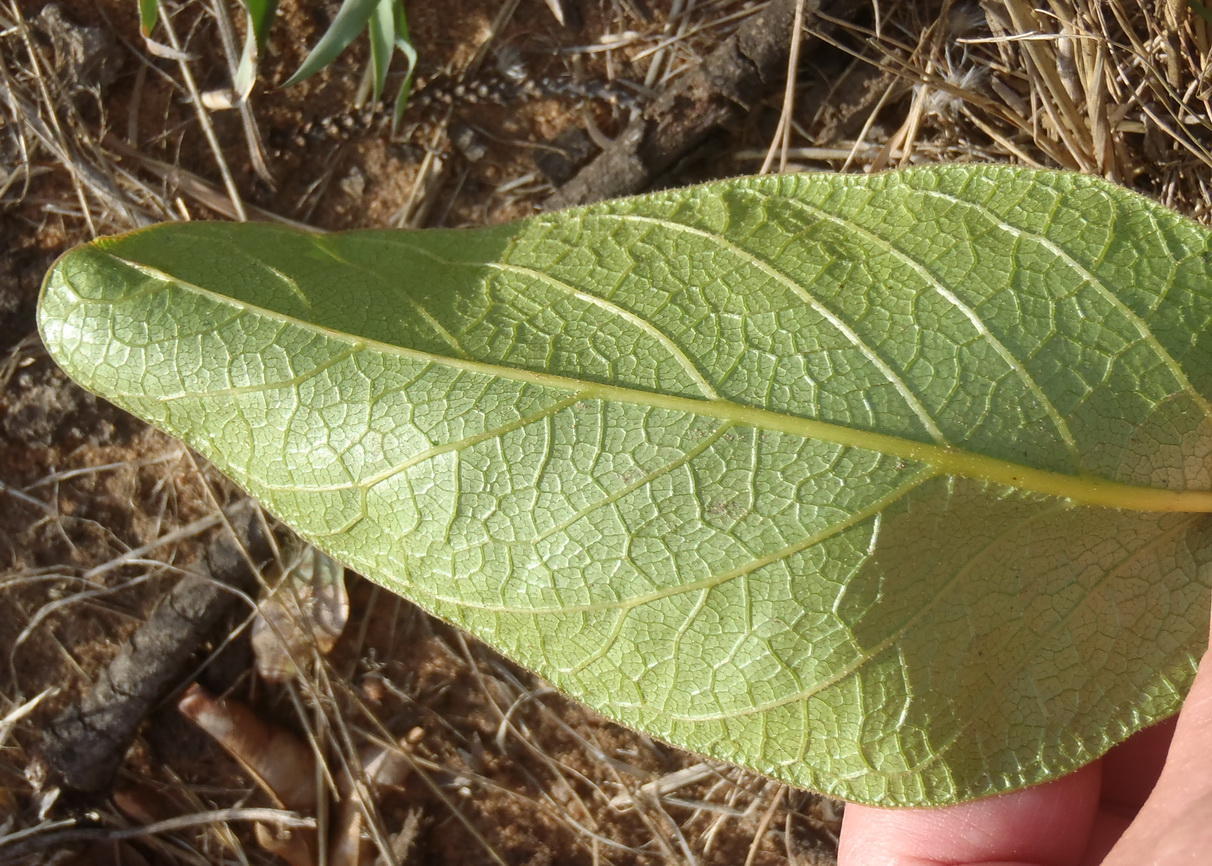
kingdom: Plantae
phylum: Tracheophyta
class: Magnoliopsida
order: Sapindales
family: Anacardiaceae
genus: Lannea
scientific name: Lannea edulis
